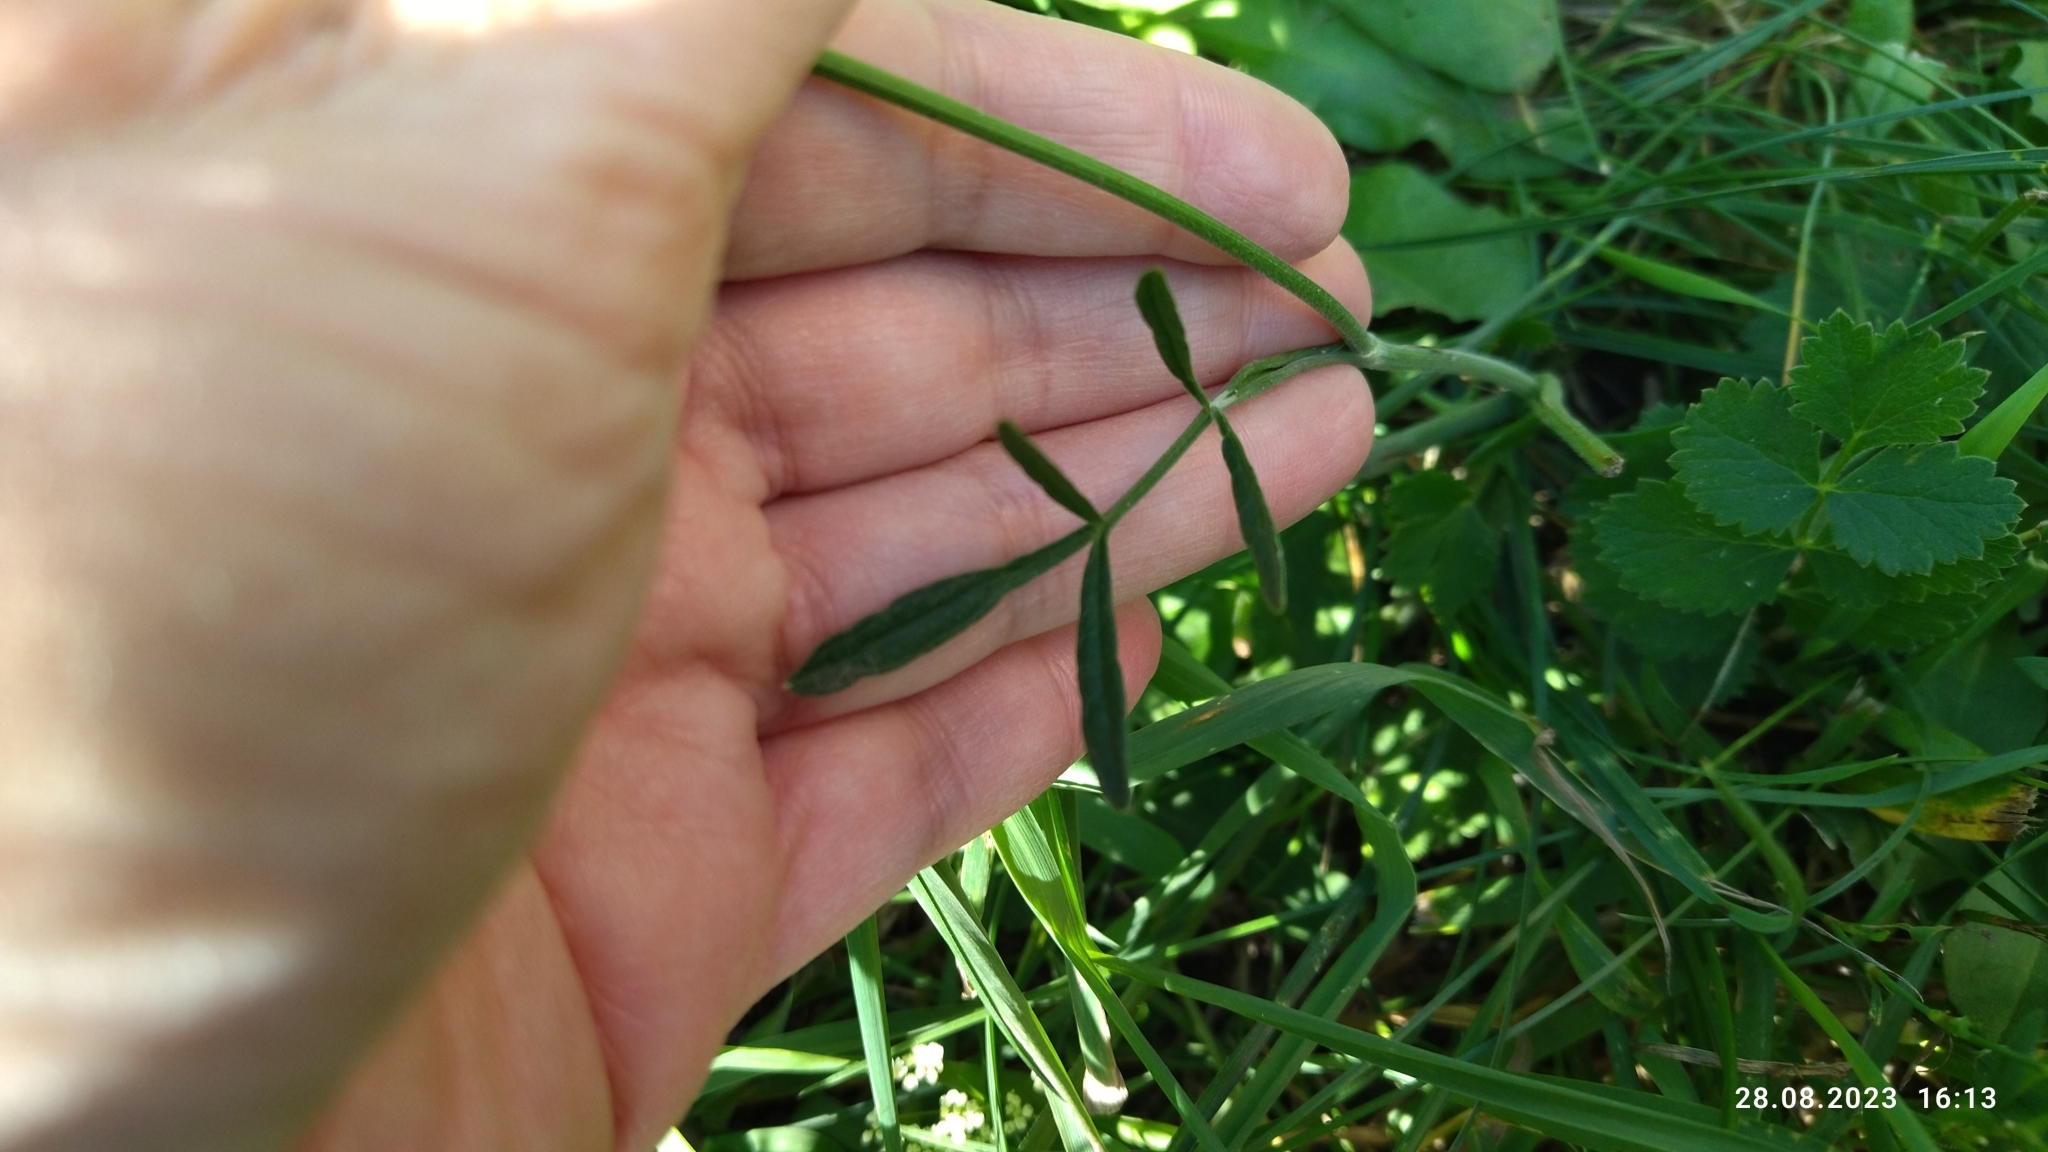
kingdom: Plantae
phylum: Tracheophyta
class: Magnoliopsida
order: Apiales
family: Apiaceae
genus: Pimpinella
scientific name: Pimpinella saxifraga
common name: Burnet-saxifrage
